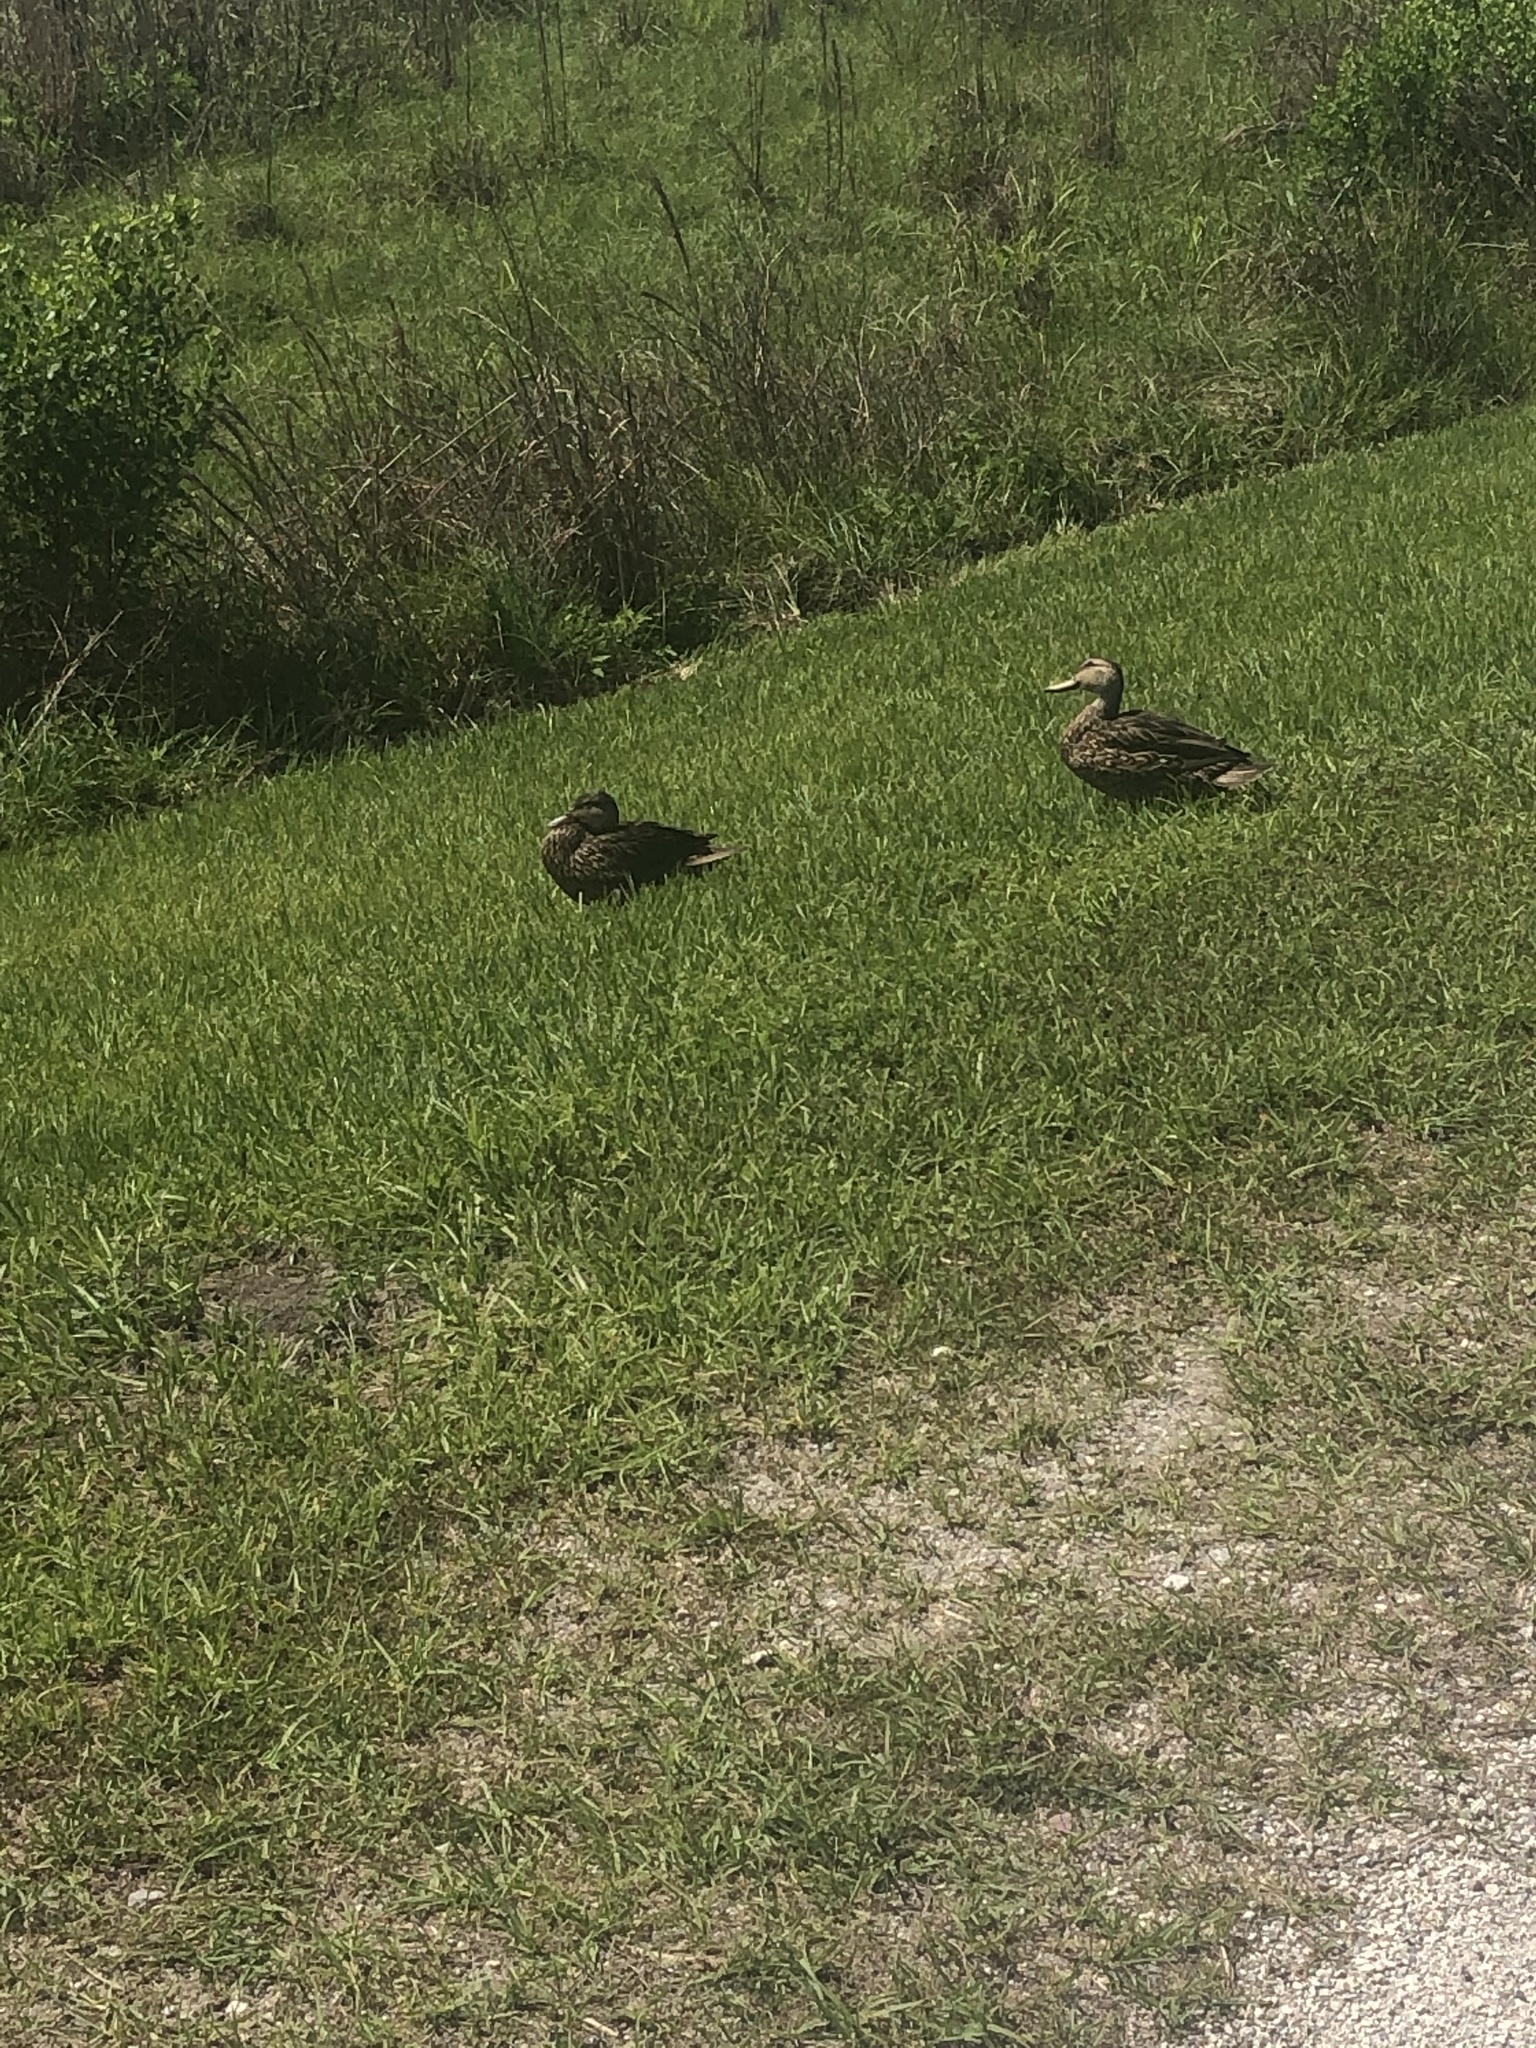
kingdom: Animalia
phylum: Chordata
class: Aves
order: Anseriformes
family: Anatidae
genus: Anas
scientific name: Anas
